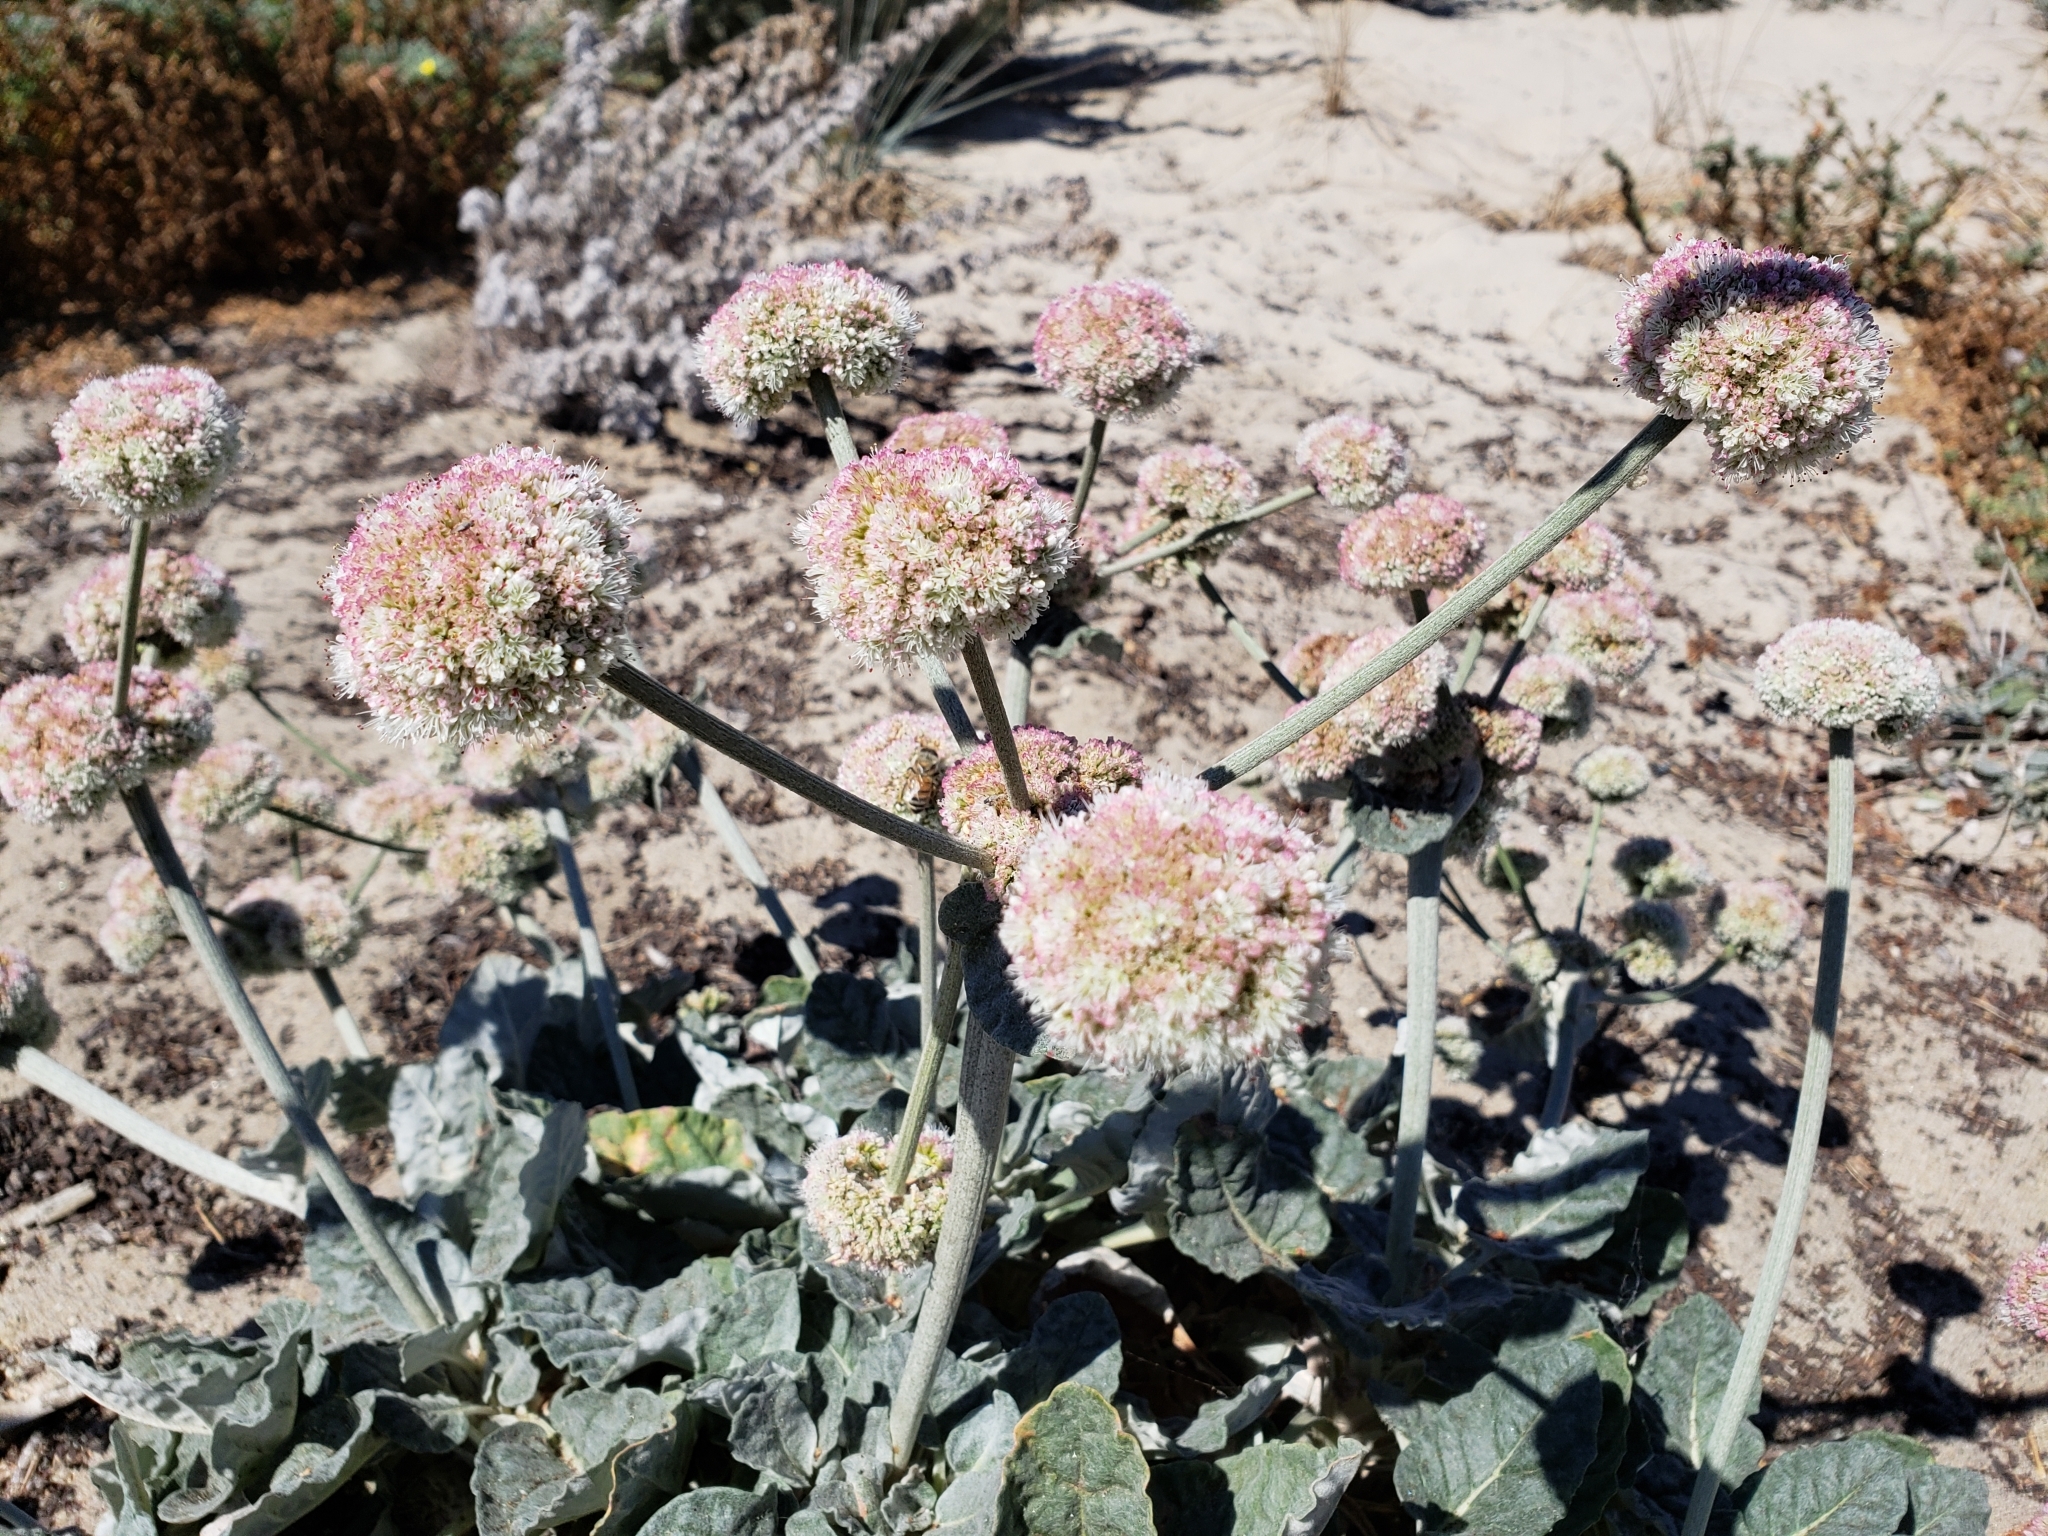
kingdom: Plantae
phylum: Tracheophyta
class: Magnoliopsida
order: Caryophyllales
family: Polygonaceae
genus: Eriogonum
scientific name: Eriogonum latifolium
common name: Seaside wild buckwheat
